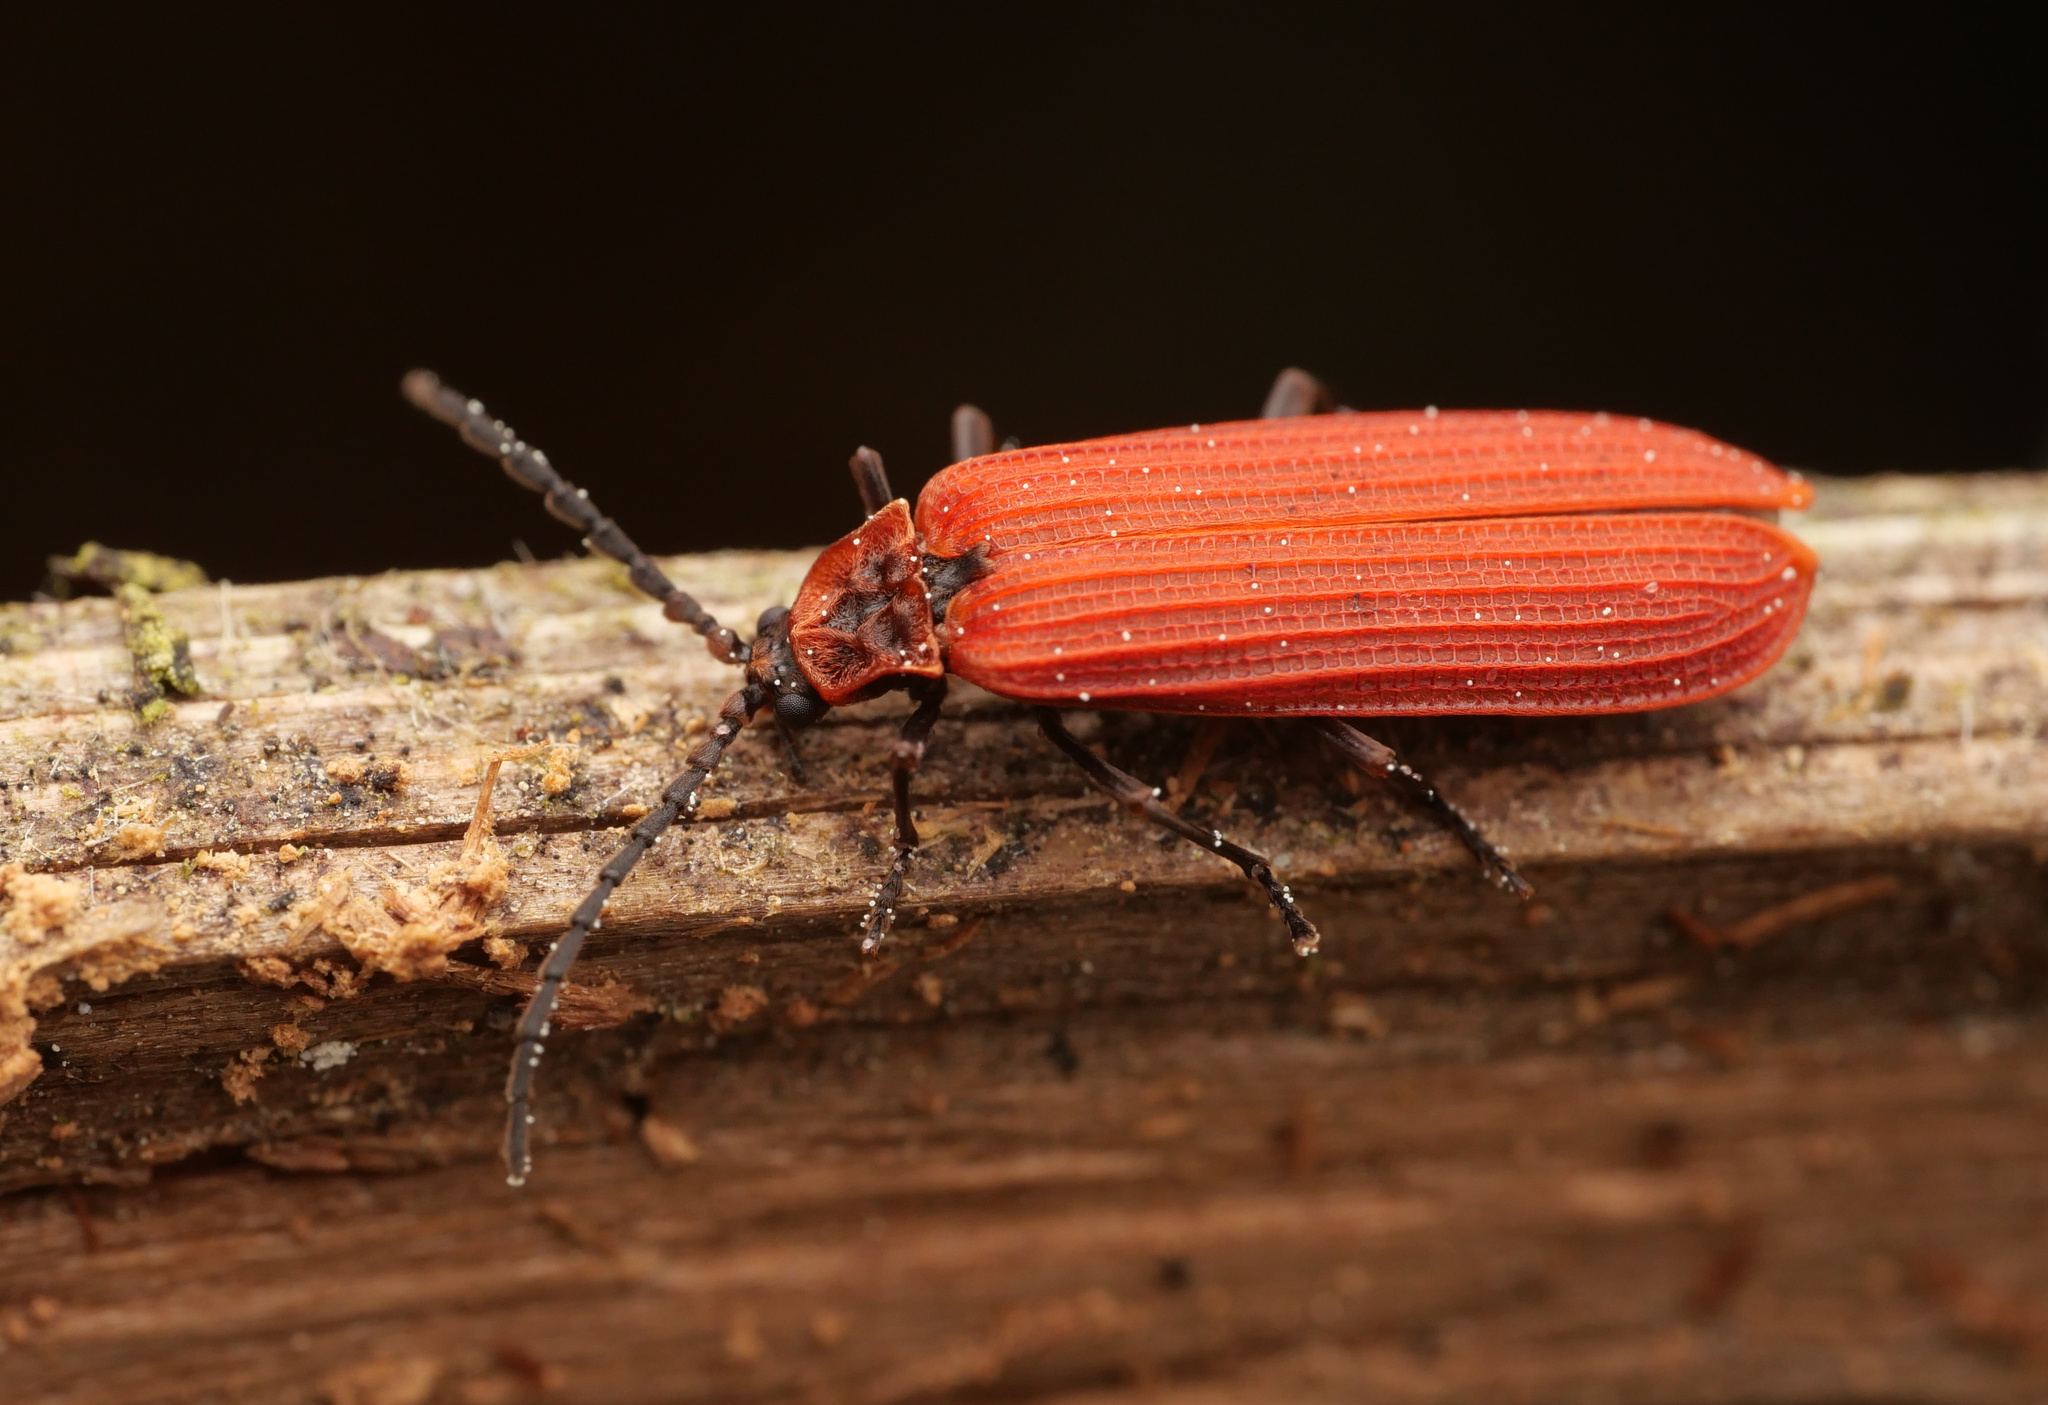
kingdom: Animalia
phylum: Arthropoda
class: Insecta
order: Coleoptera
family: Lycidae
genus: Dictyoptera
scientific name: Dictyoptera aurora
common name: Golden net-winged beetle
